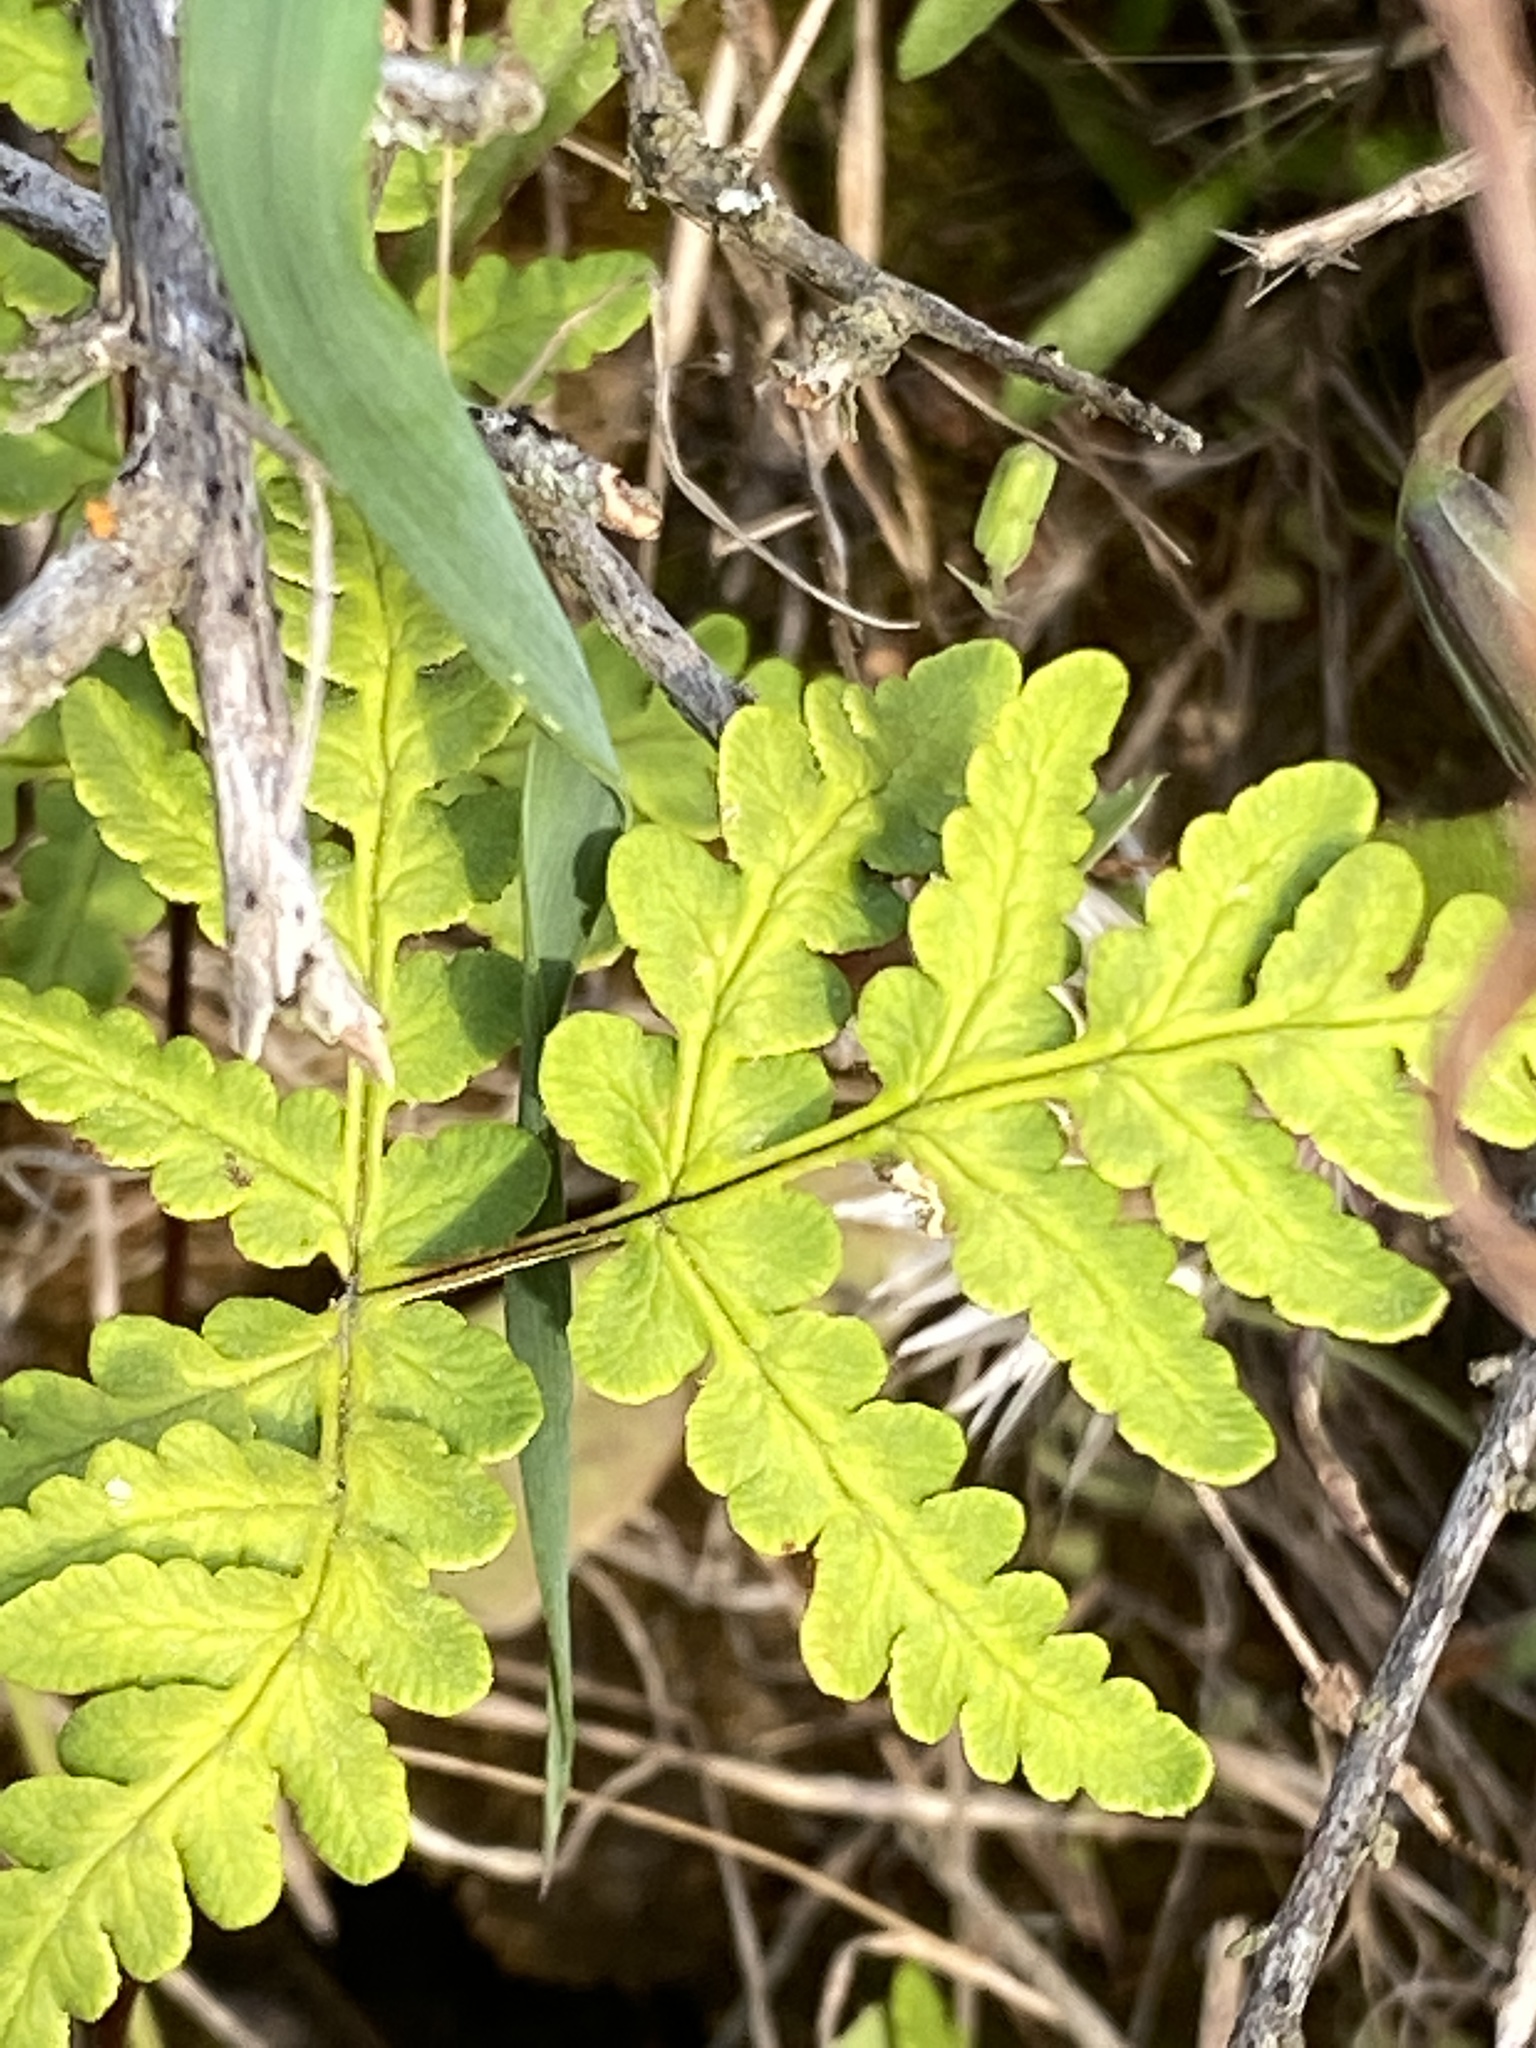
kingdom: Plantae
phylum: Tracheophyta
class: Polypodiopsida
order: Polypodiales
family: Pteridaceae
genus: Pentagramma
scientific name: Pentagramma triangularis
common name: Gold fern
